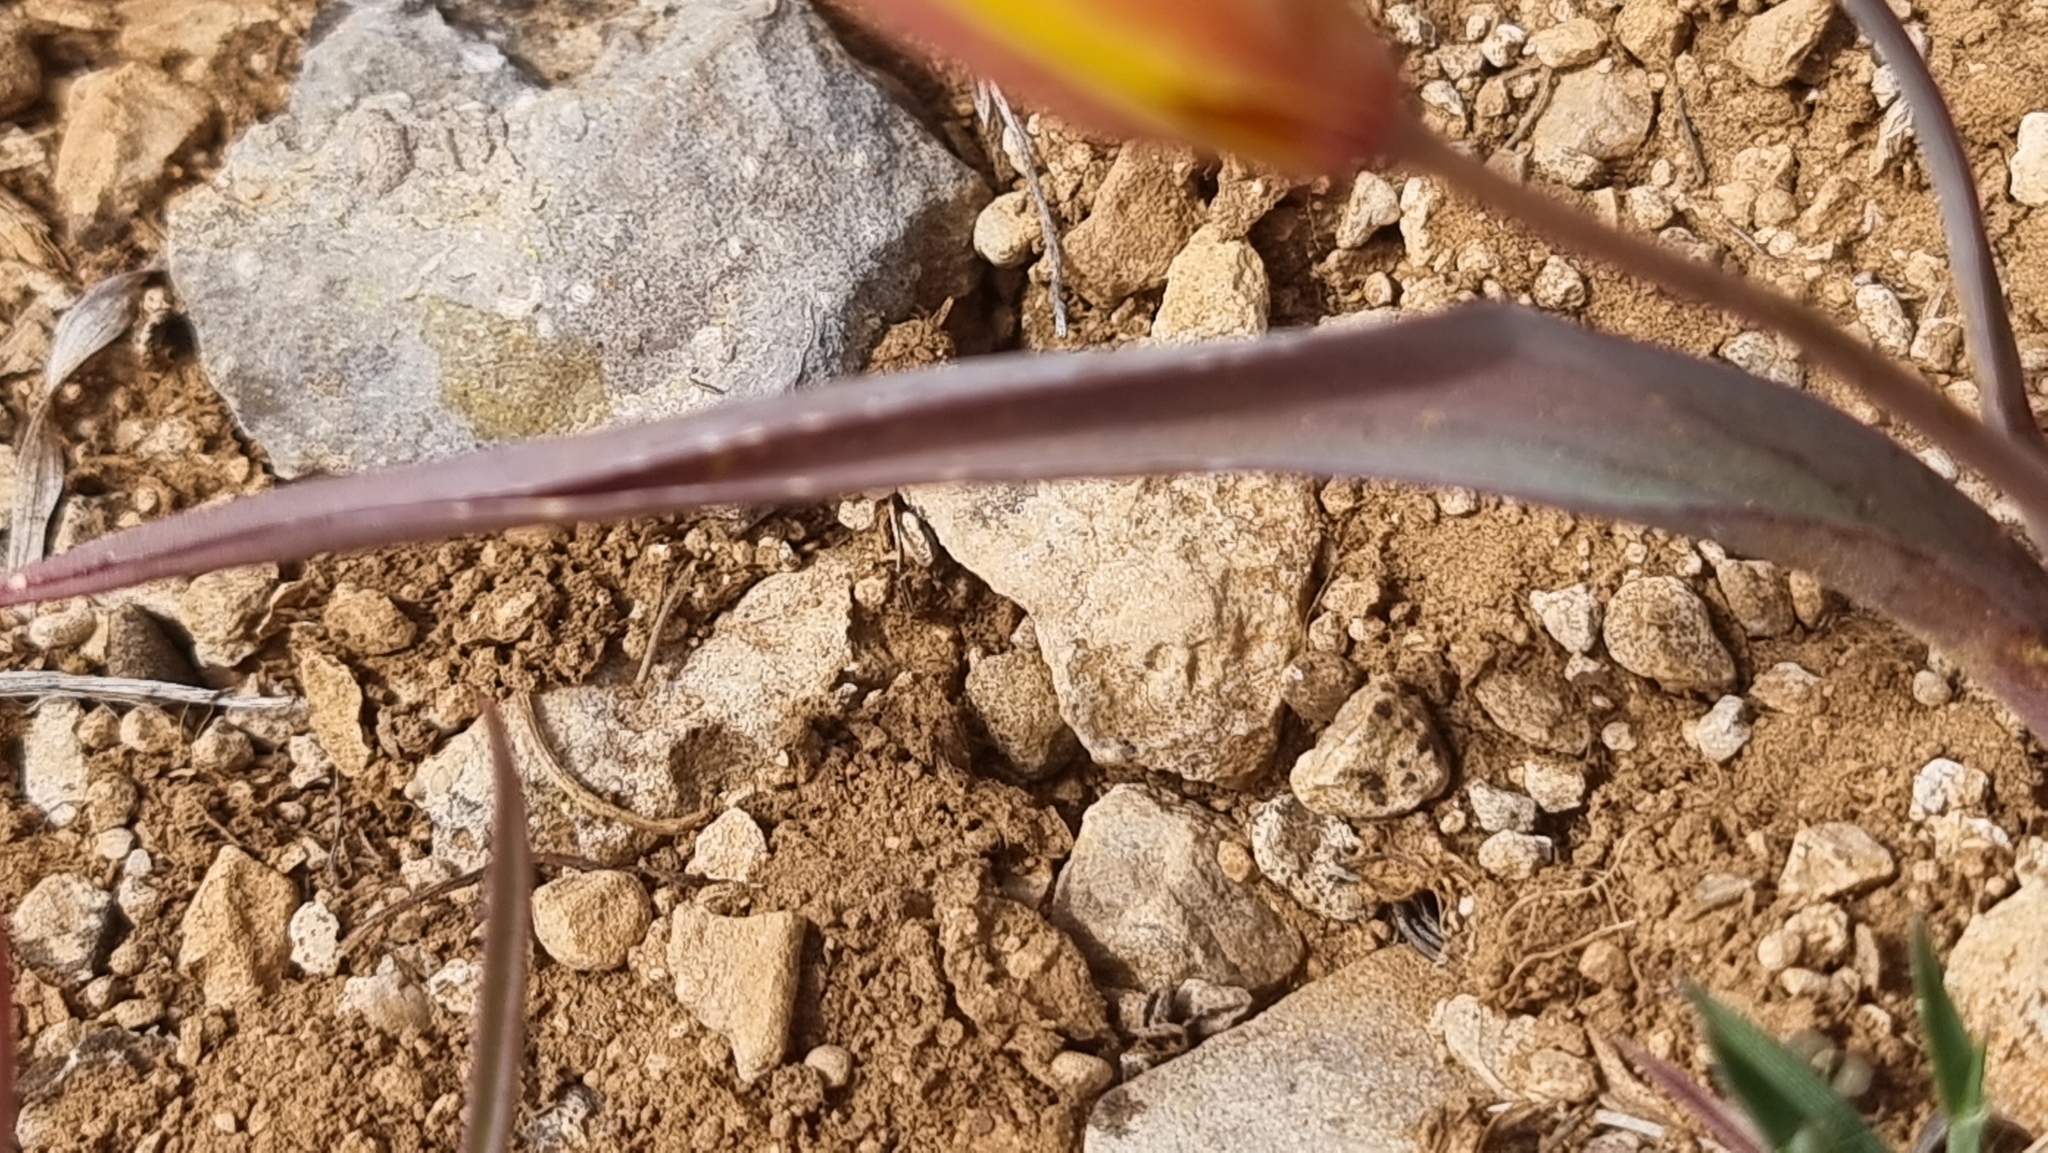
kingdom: Plantae
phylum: Tracheophyta
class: Liliopsida
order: Liliales
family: Liliaceae
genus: Tulipa
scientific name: Tulipa sylvestris
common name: Wild tulip
